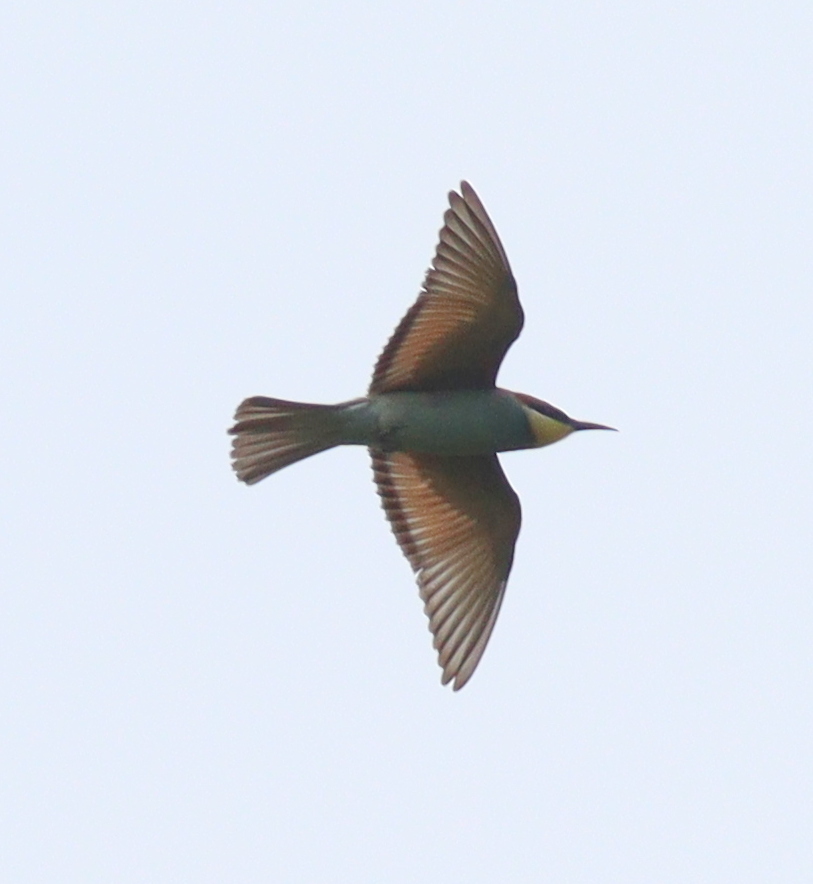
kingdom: Animalia
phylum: Chordata
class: Aves
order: Coraciiformes
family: Meropidae
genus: Merops
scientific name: Merops apiaster
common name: European bee-eater
